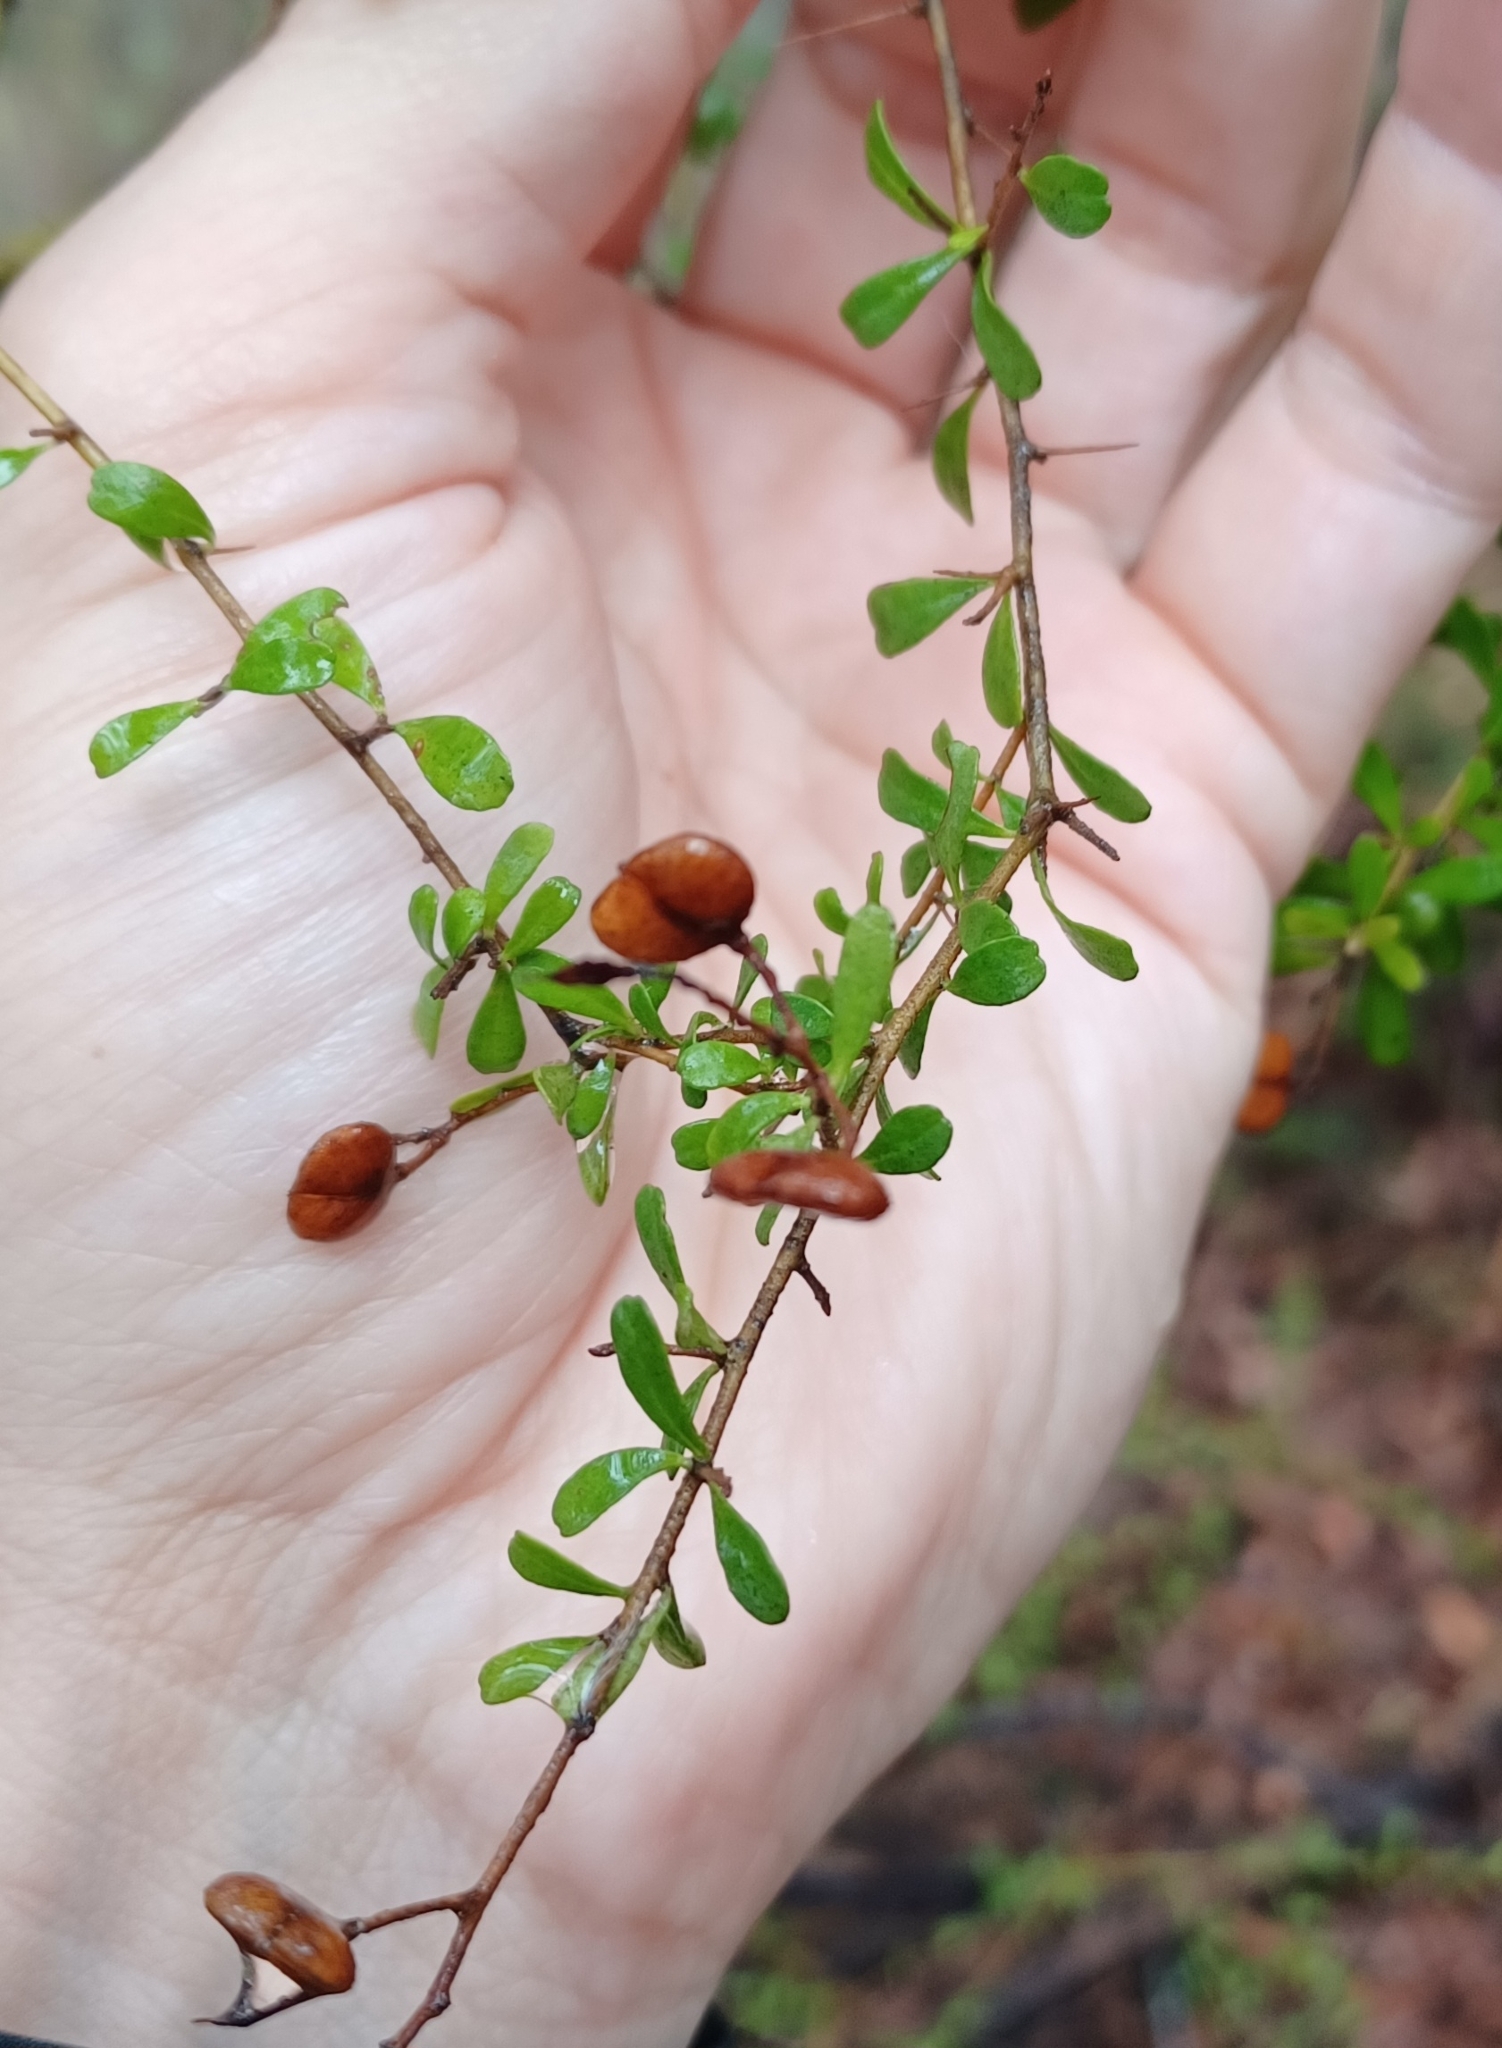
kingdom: Plantae
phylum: Tracheophyta
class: Magnoliopsida
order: Apiales
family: Pittosporaceae
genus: Bursaria
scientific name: Bursaria spinosa
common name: Australian blackthorn
